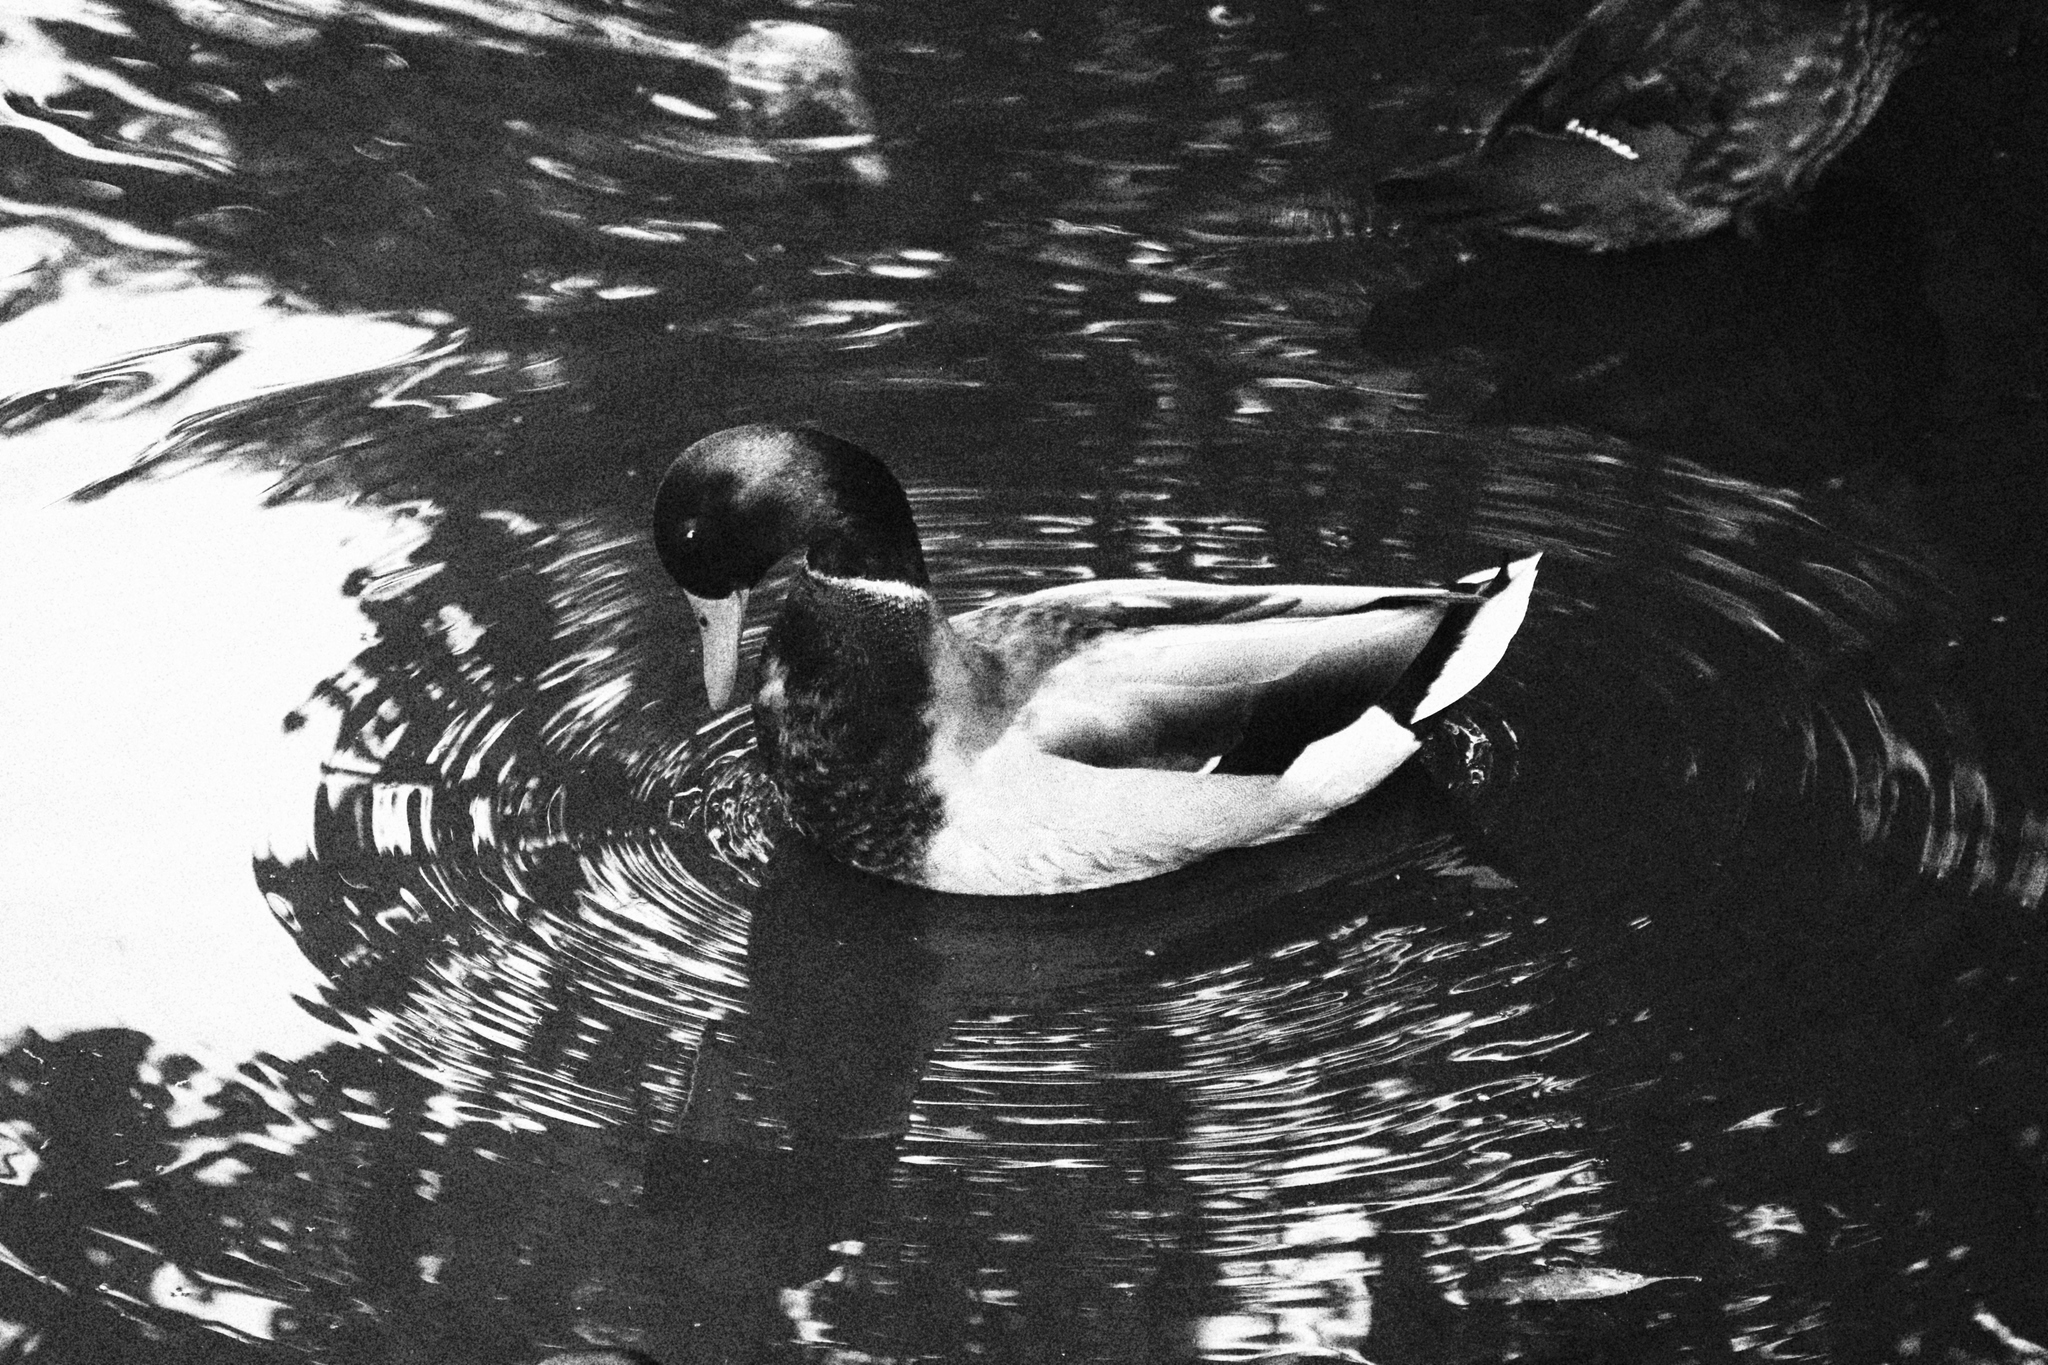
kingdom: Animalia
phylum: Chordata
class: Aves
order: Anseriformes
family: Anatidae
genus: Anas
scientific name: Anas platyrhynchos
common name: Mallard
